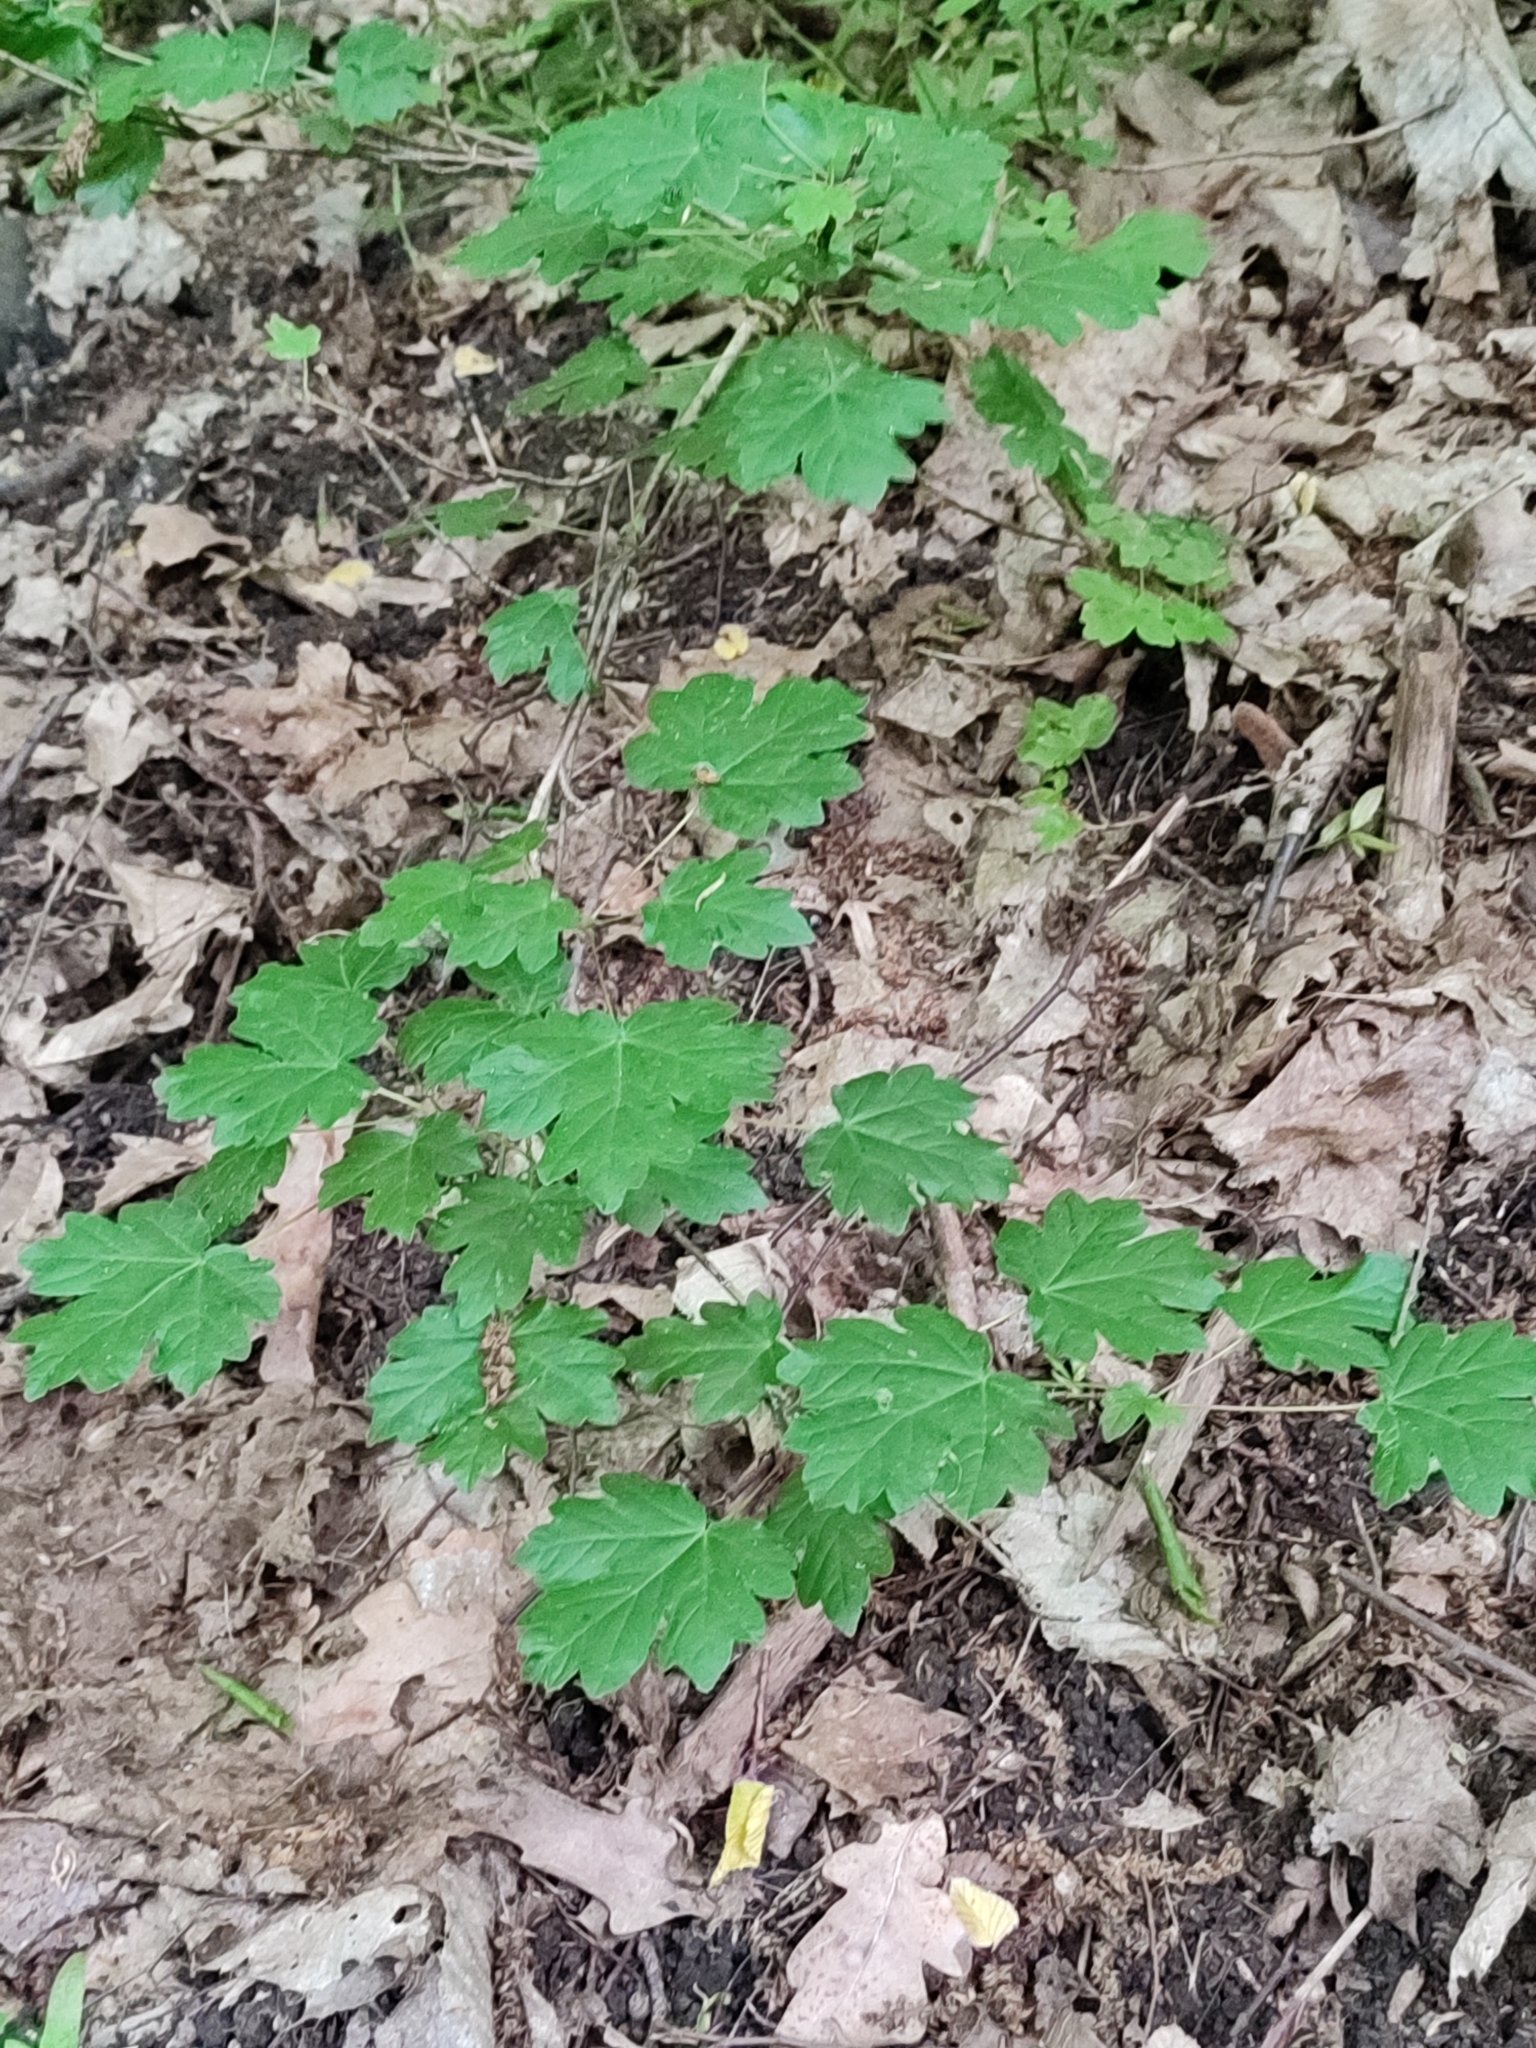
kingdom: Plantae
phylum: Tracheophyta
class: Magnoliopsida
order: Sapindales
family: Sapindaceae
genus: Acer
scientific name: Acer campestre
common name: Field maple
